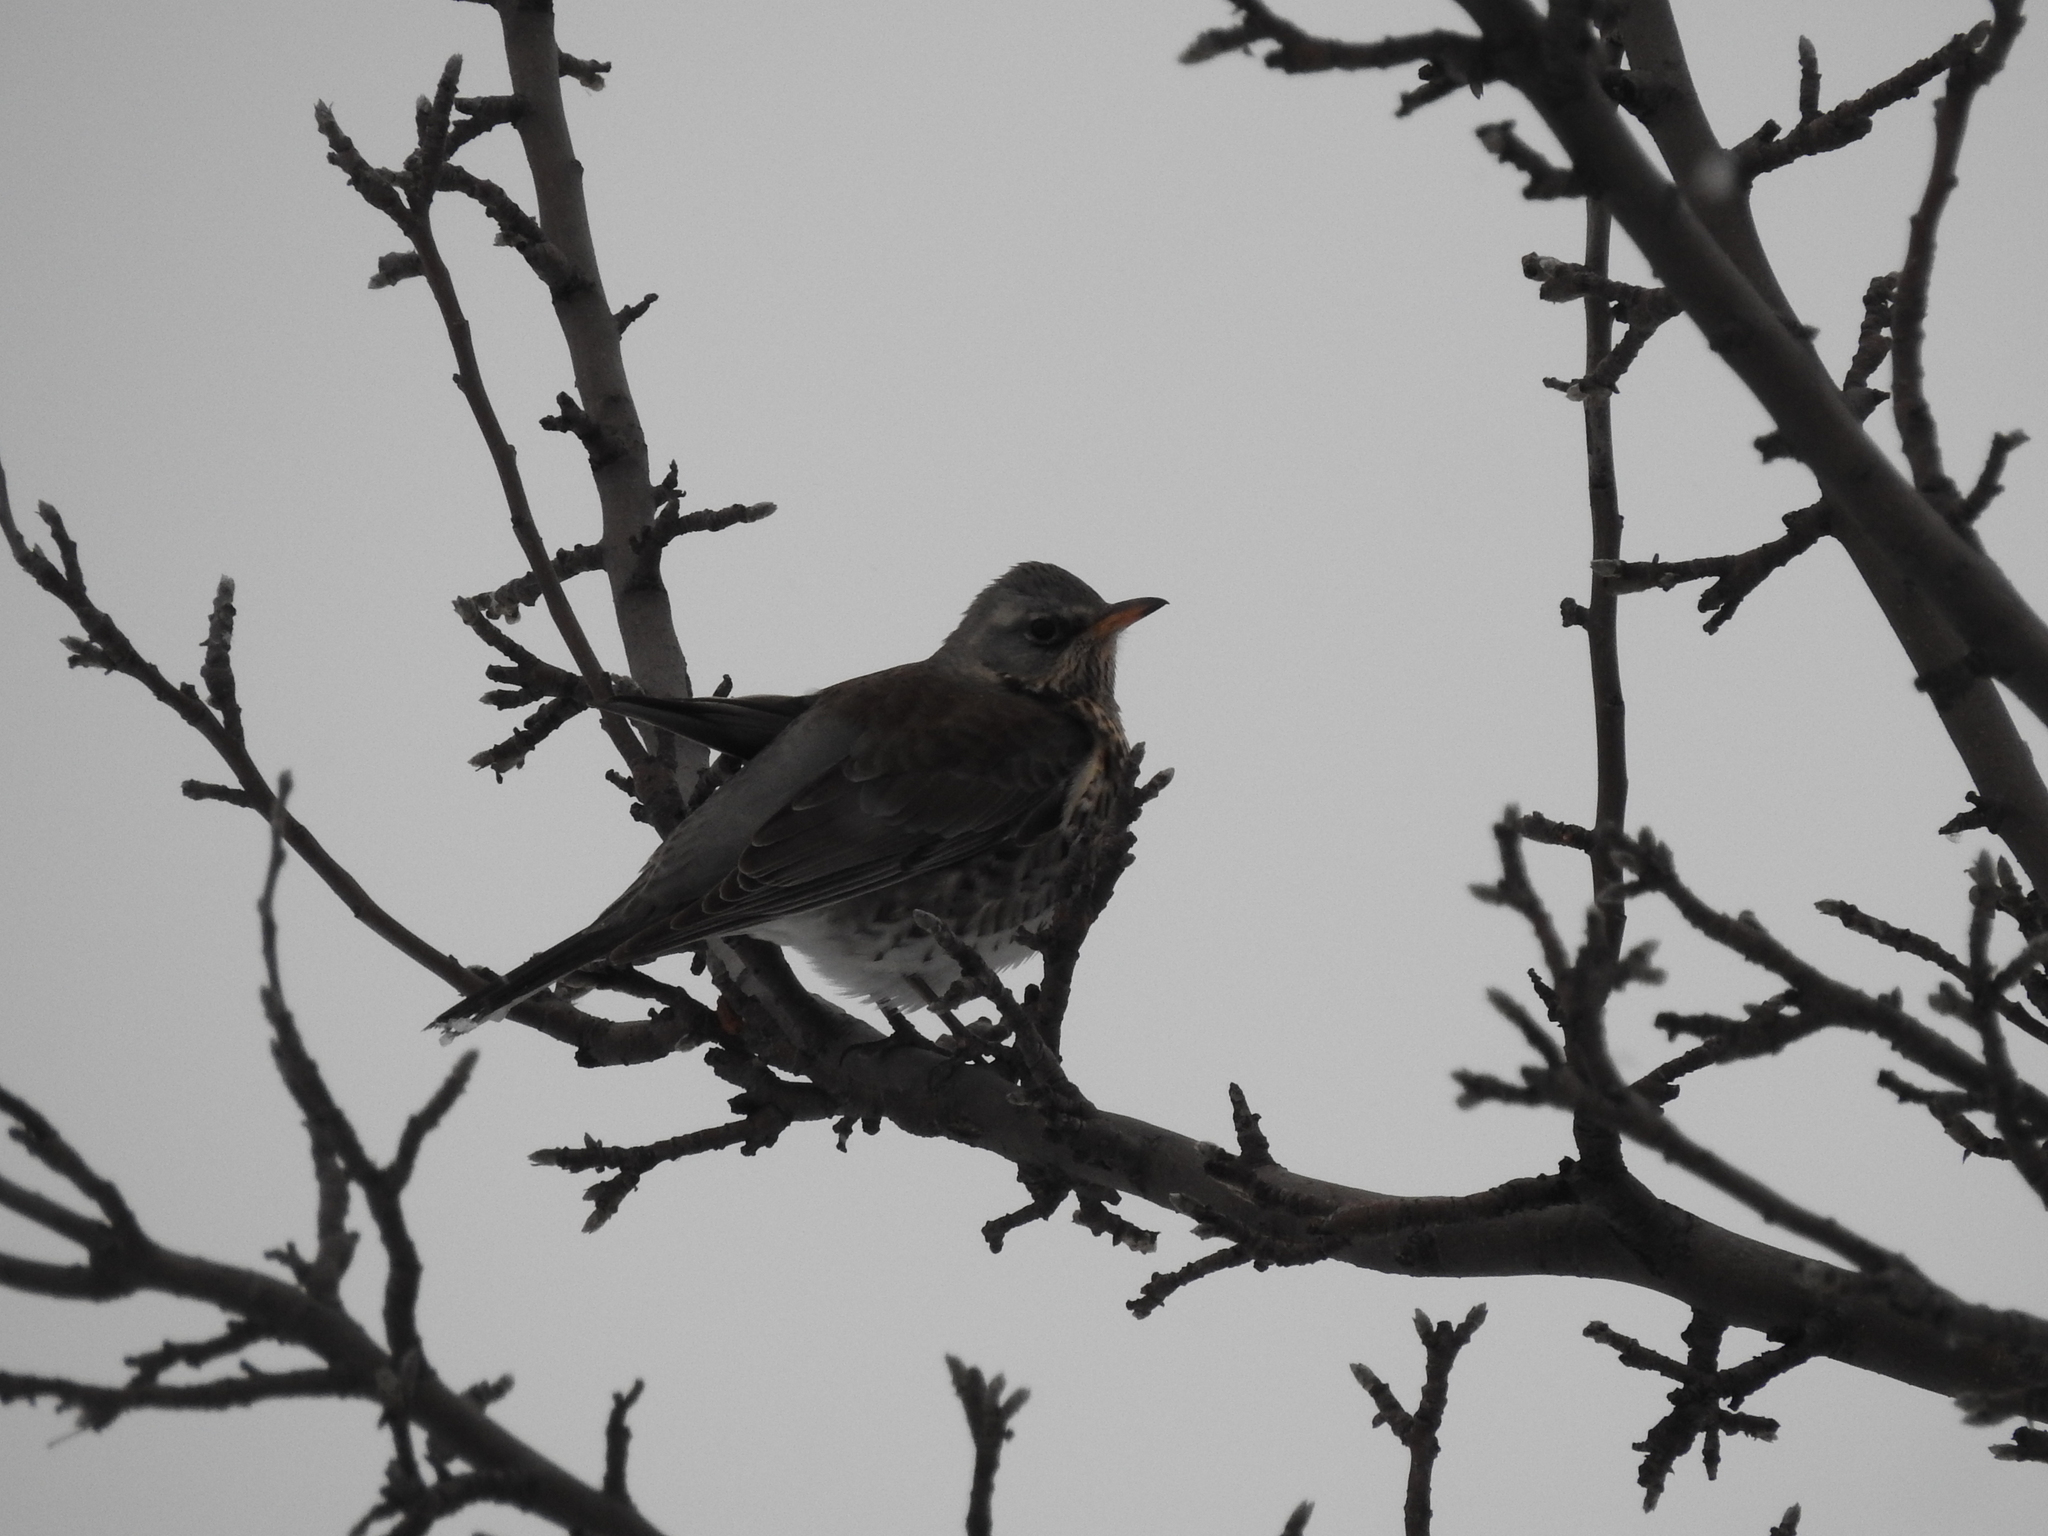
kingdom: Animalia
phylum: Chordata
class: Aves
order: Passeriformes
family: Turdidae
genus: Turdus
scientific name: Turdus pilaris
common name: Fieldfare
